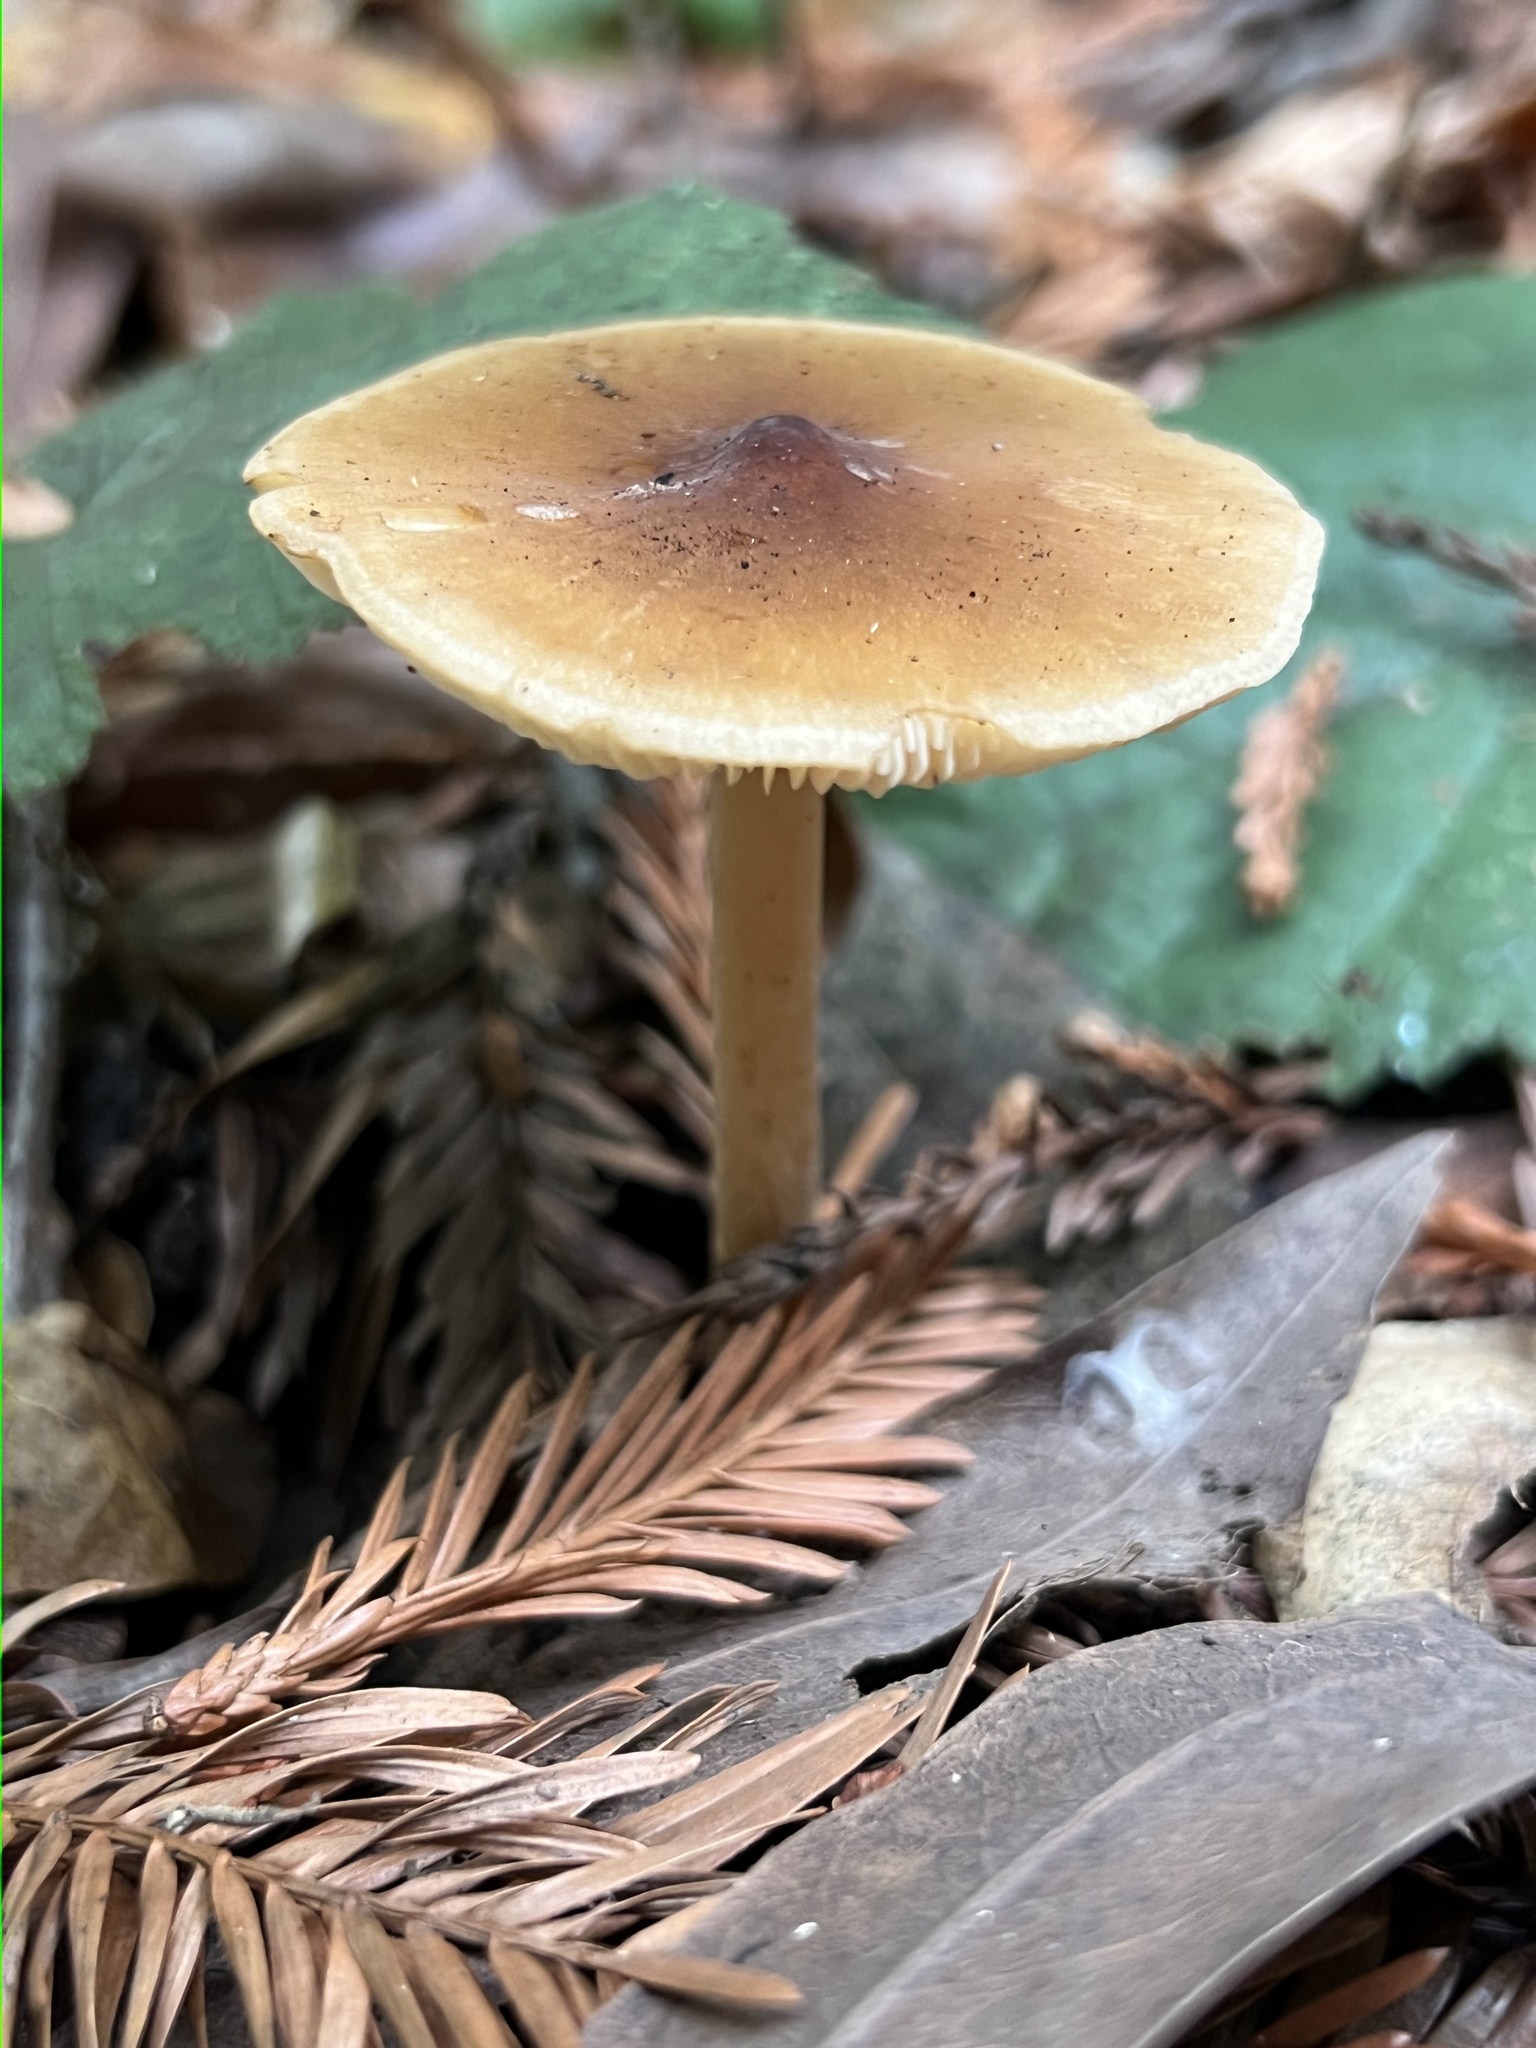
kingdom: Fungi
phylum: Basidiomycota
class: Agaricomycetes
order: Agaricales
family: Tricholomataceae
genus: Caulorhiza
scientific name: Caulorhiza umbonata
